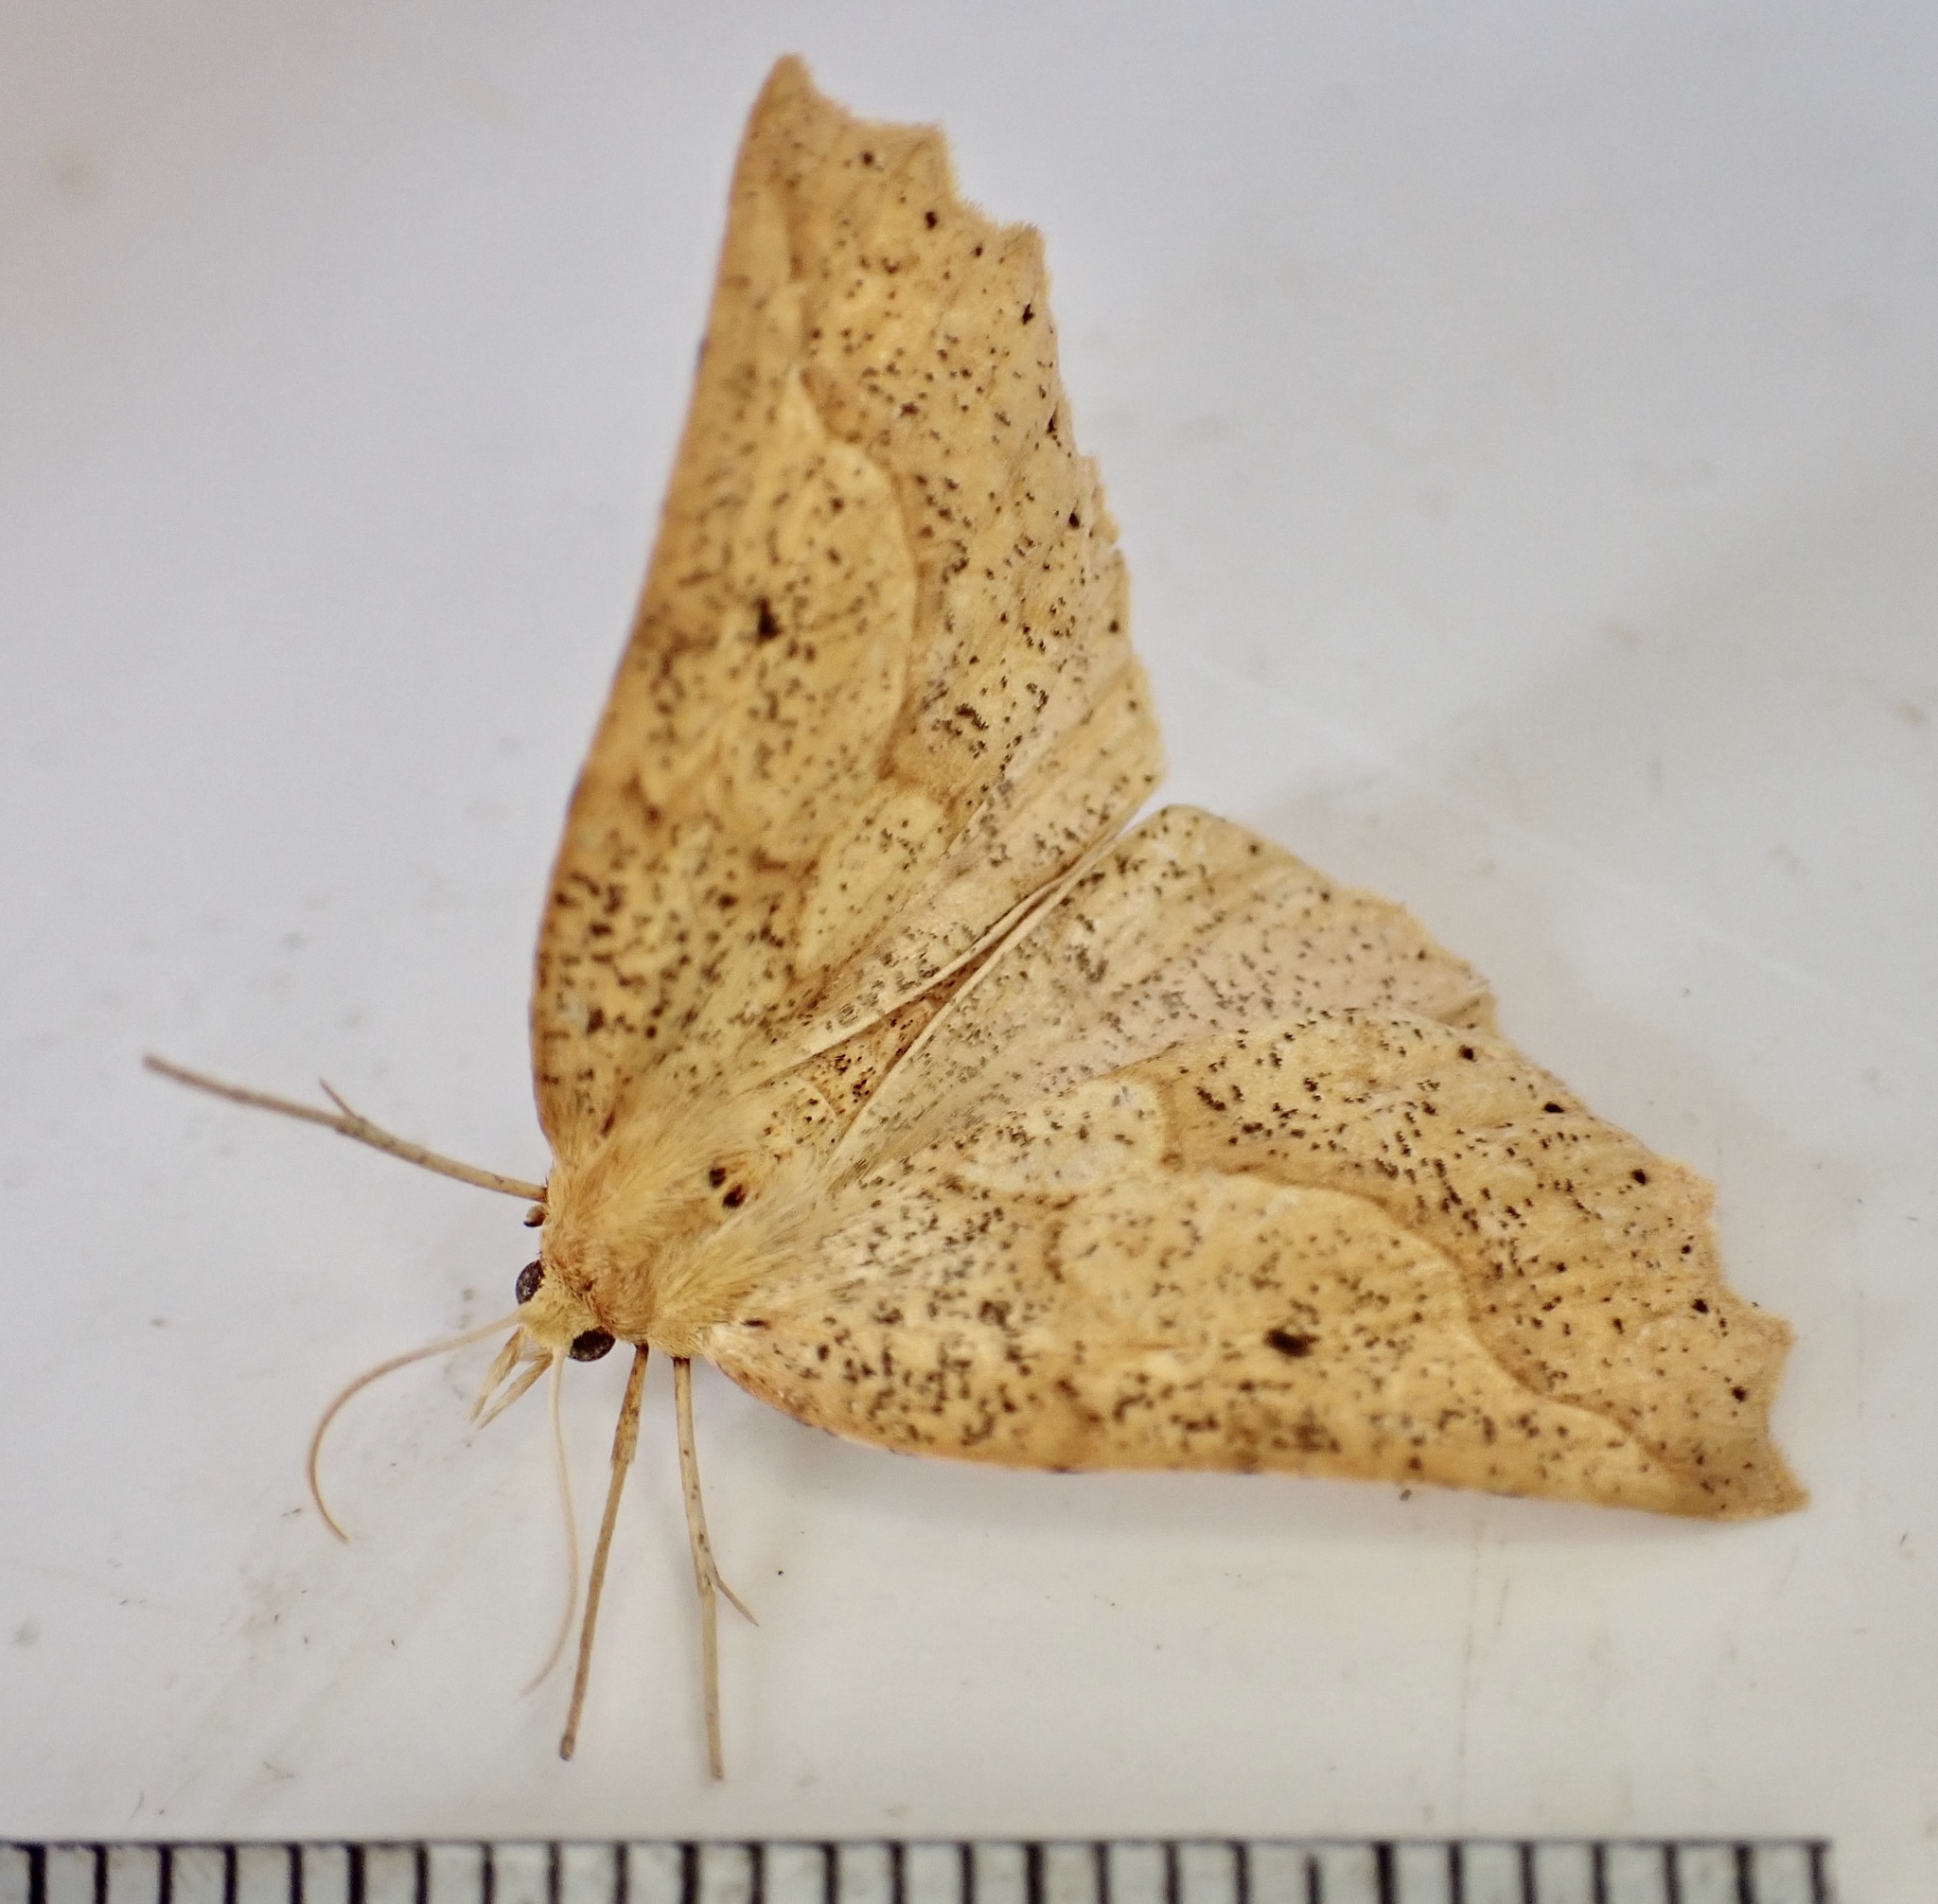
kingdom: Animalia
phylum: Arthropoda
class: Insecta
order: Lepidoptera
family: Geometridae
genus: Ischalis
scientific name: Ischalis variabilis
